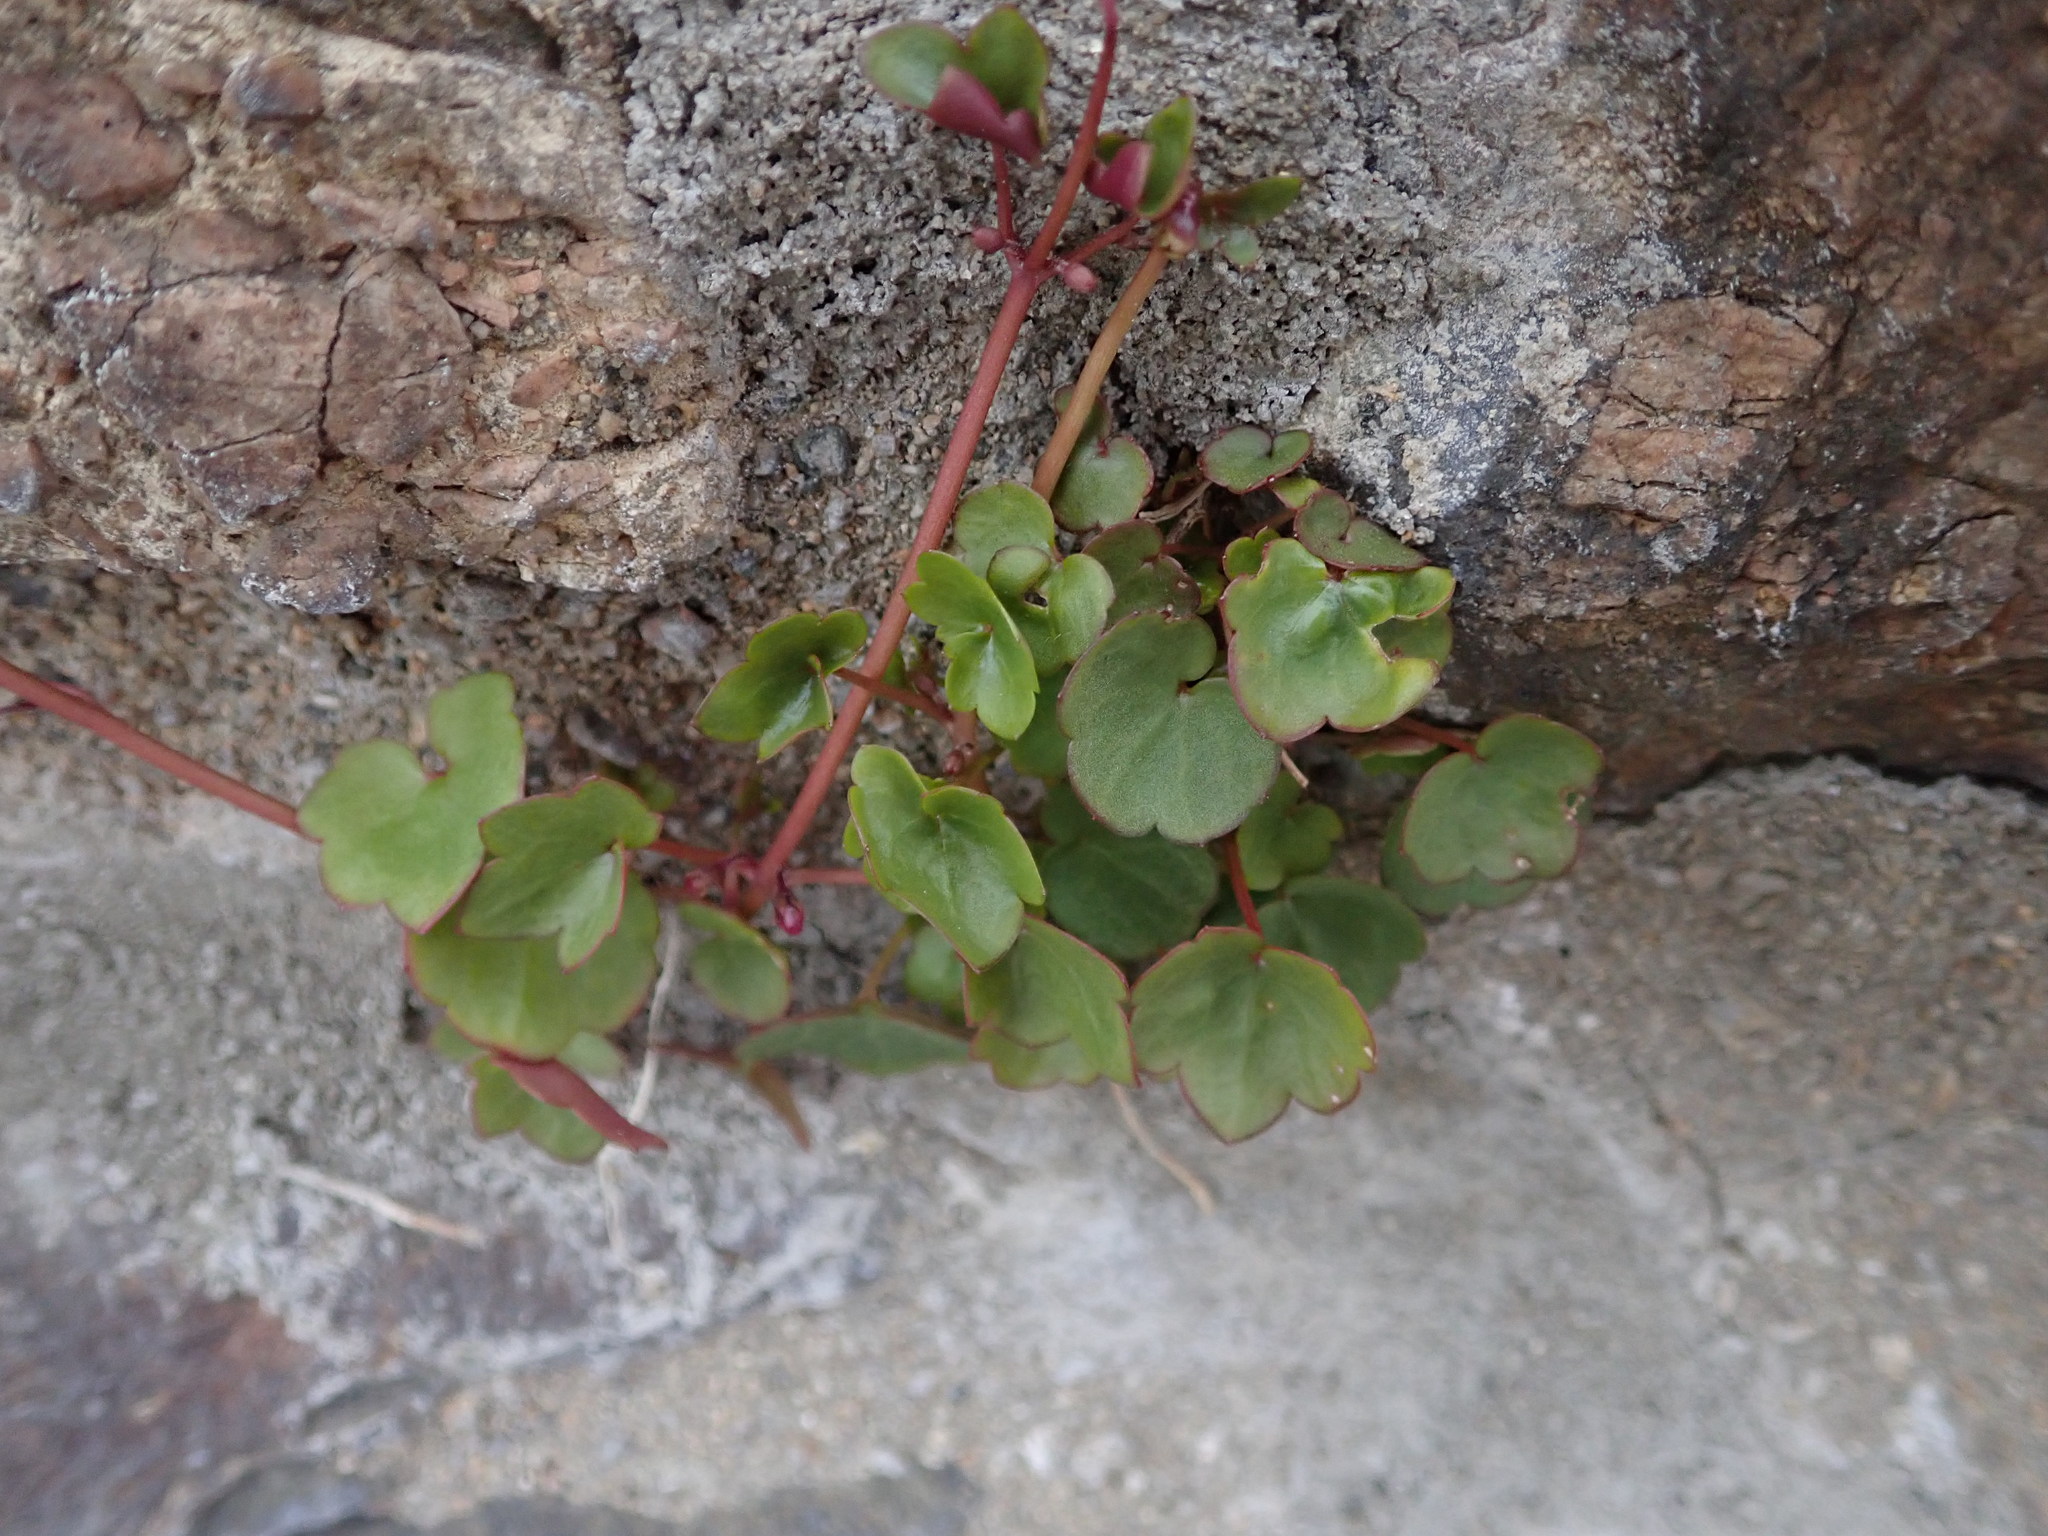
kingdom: Plantae
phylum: Tracheophyta
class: Magnoliopsida
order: Lamiales
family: Plantaginaceae
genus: Cymbalaria
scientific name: Cymbalaria muralis
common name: Ivy-leaved toadflax
